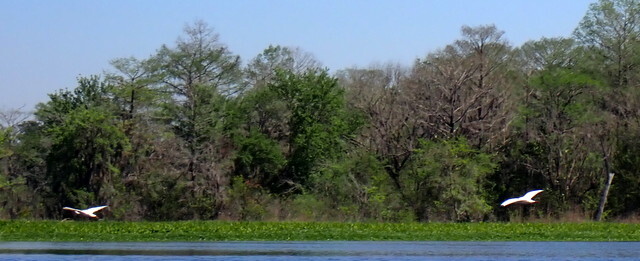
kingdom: Animalia
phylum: Chordata
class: Aves
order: Pelecaniformes
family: Threskiornithidae
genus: Eudocimus
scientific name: Eudocimus albus
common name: White ibis
